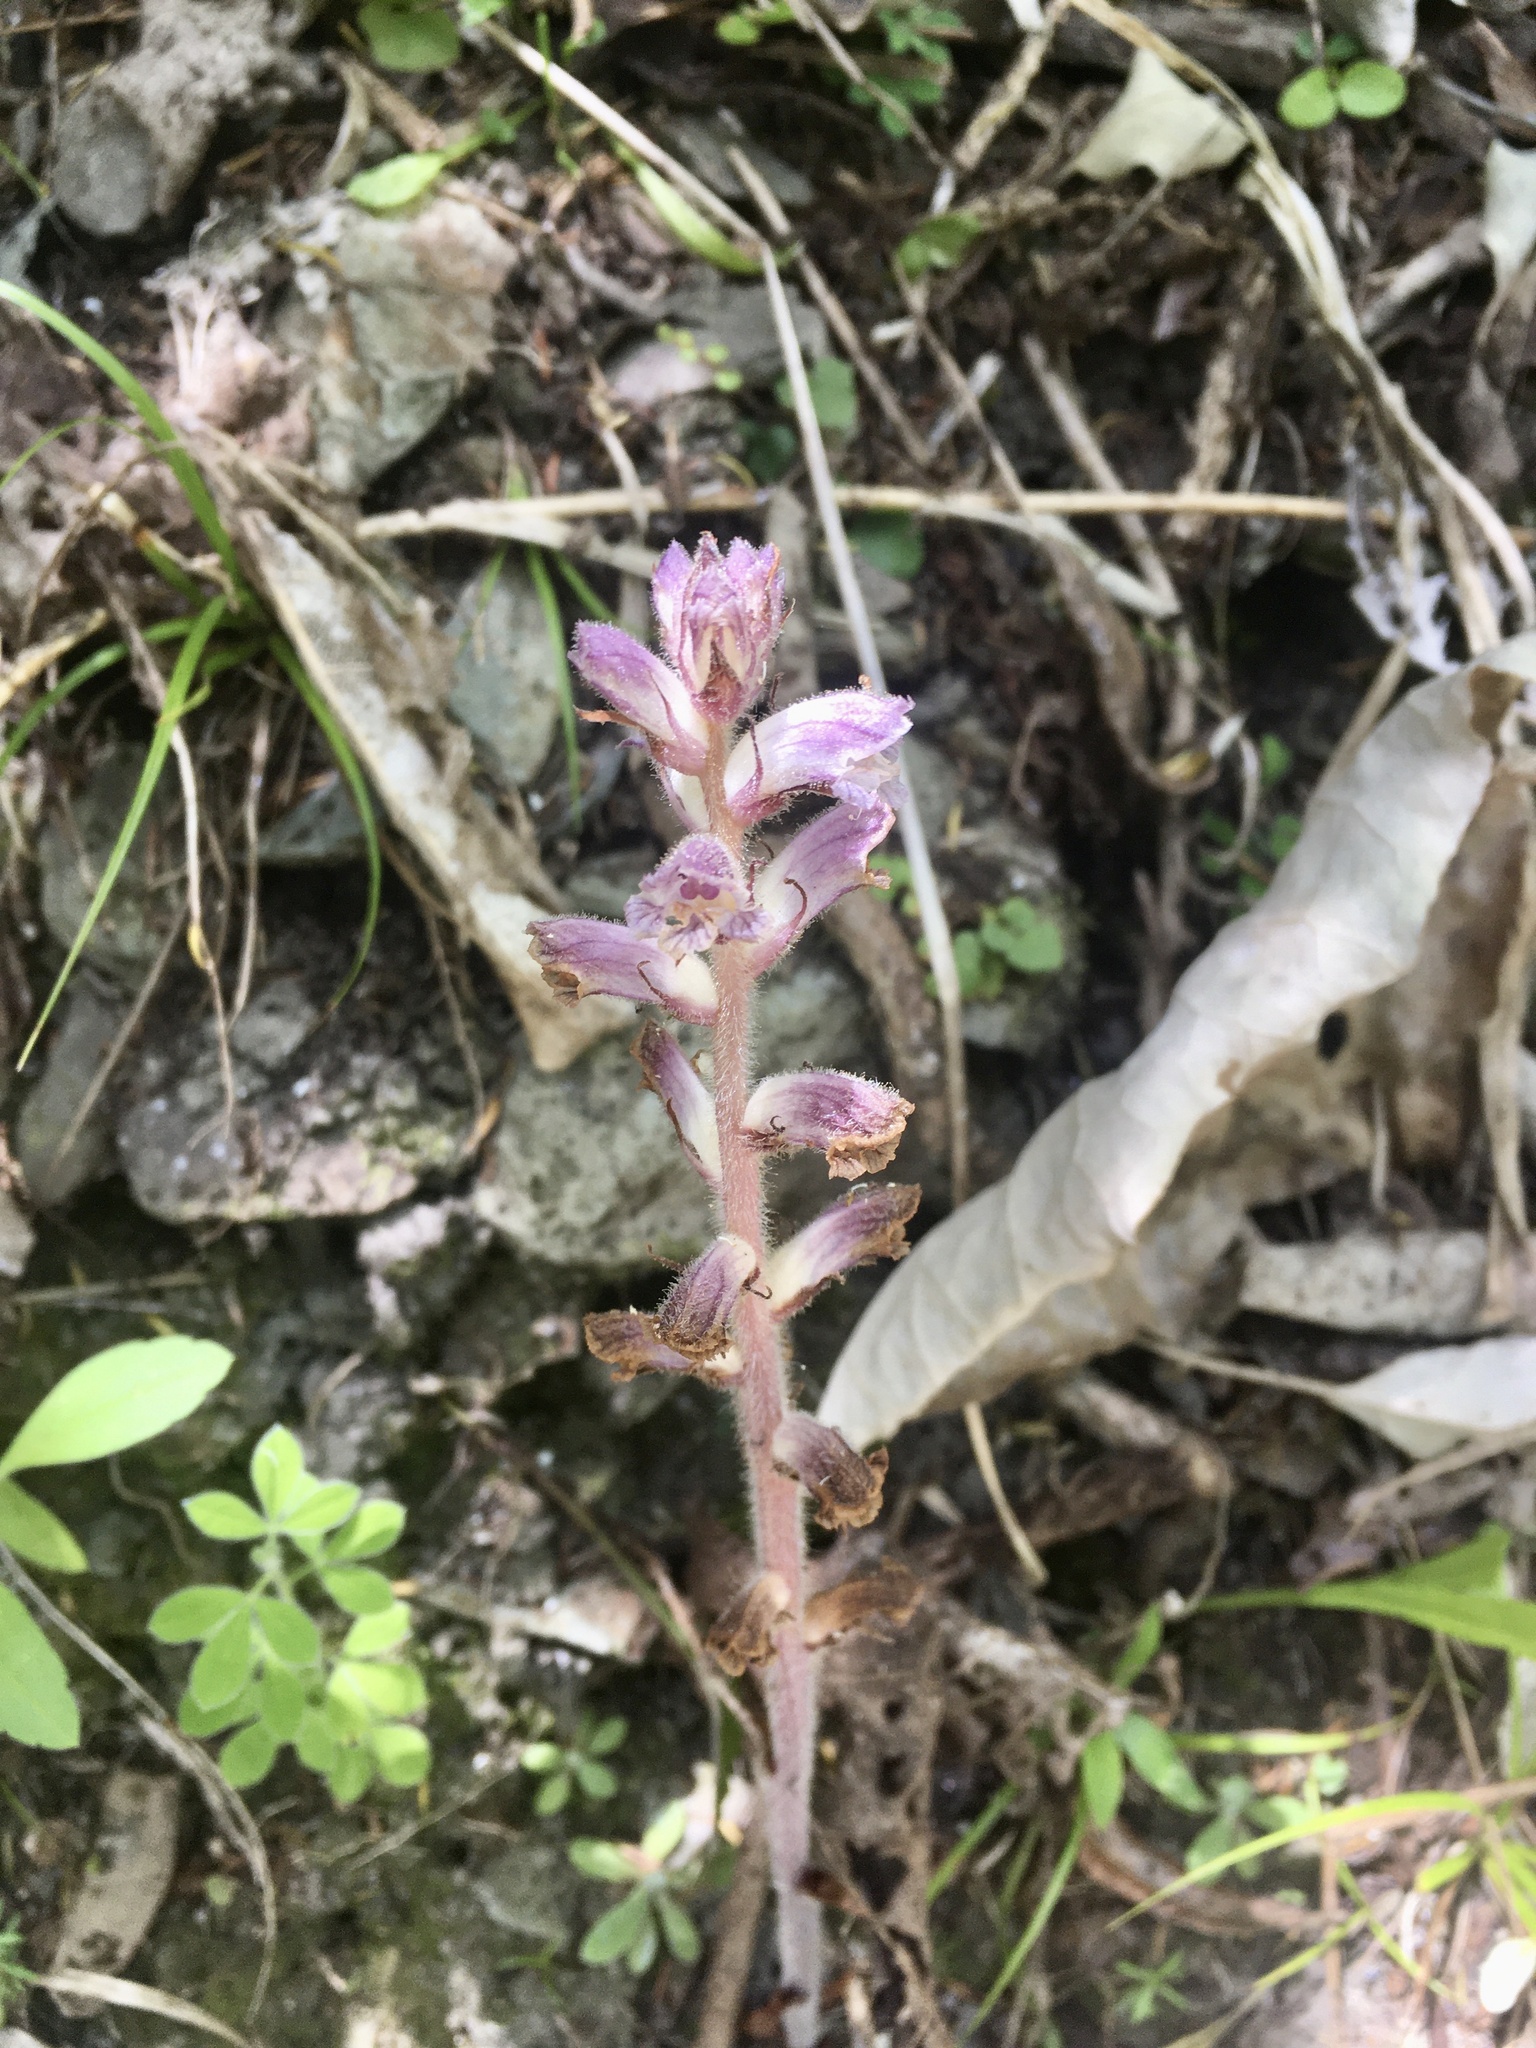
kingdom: Plantae
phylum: Tracheophyta
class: Magnoliopsida
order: Lamiales
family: Orobanchaceae
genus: Orobanche
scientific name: Orobanche minor
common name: Common broomrape
